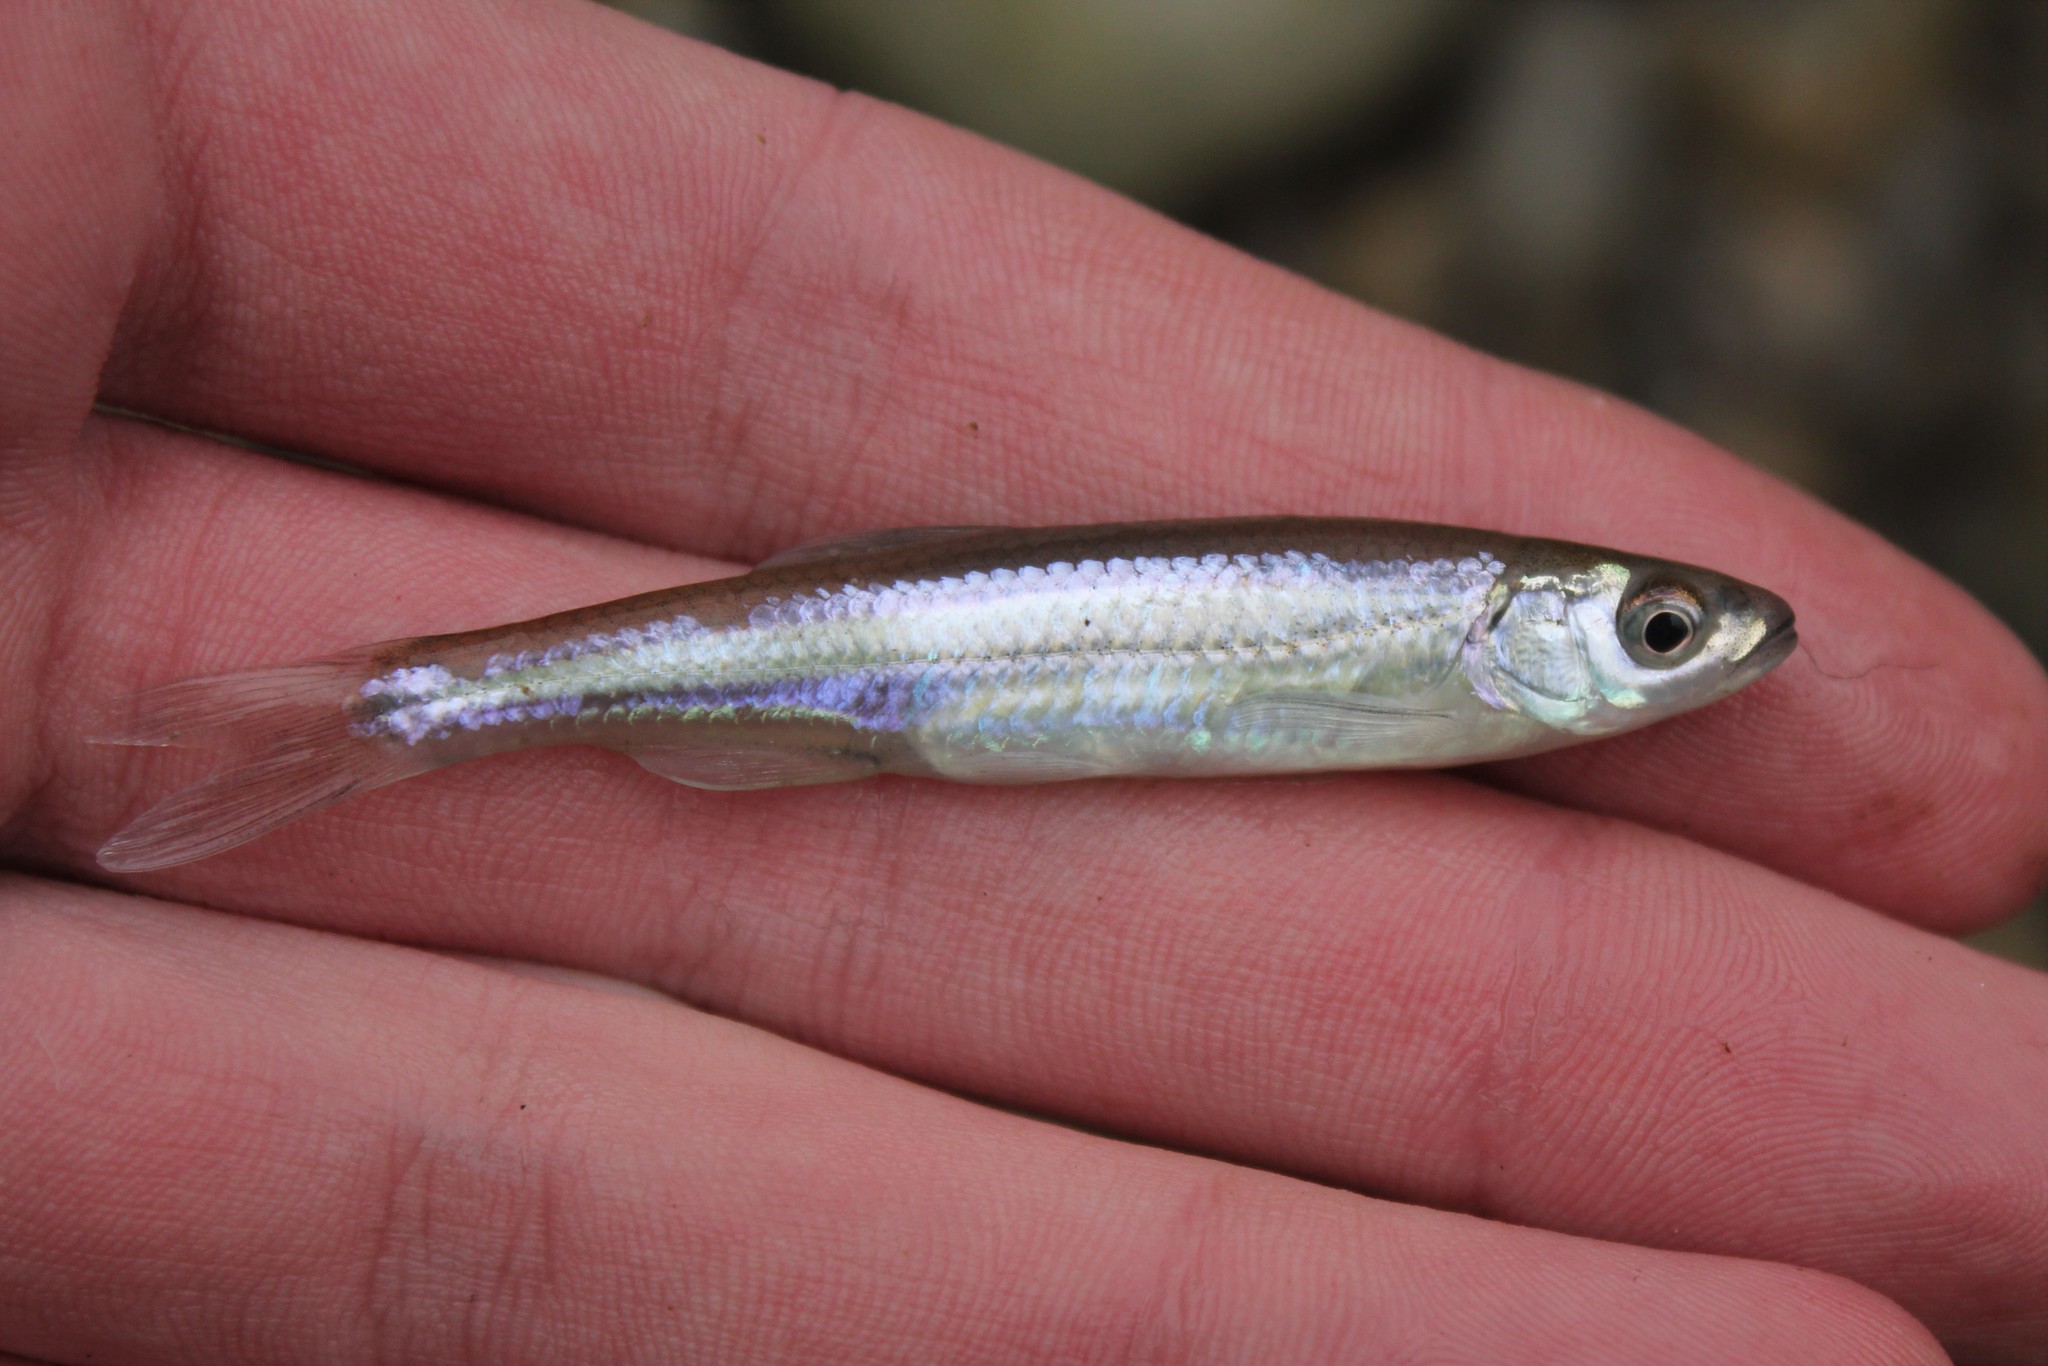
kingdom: Animalia
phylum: Chordata
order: Cypriniformes
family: Cyprinidae
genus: Notropis
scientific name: Notropis rubellus
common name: Rosyface shiner
